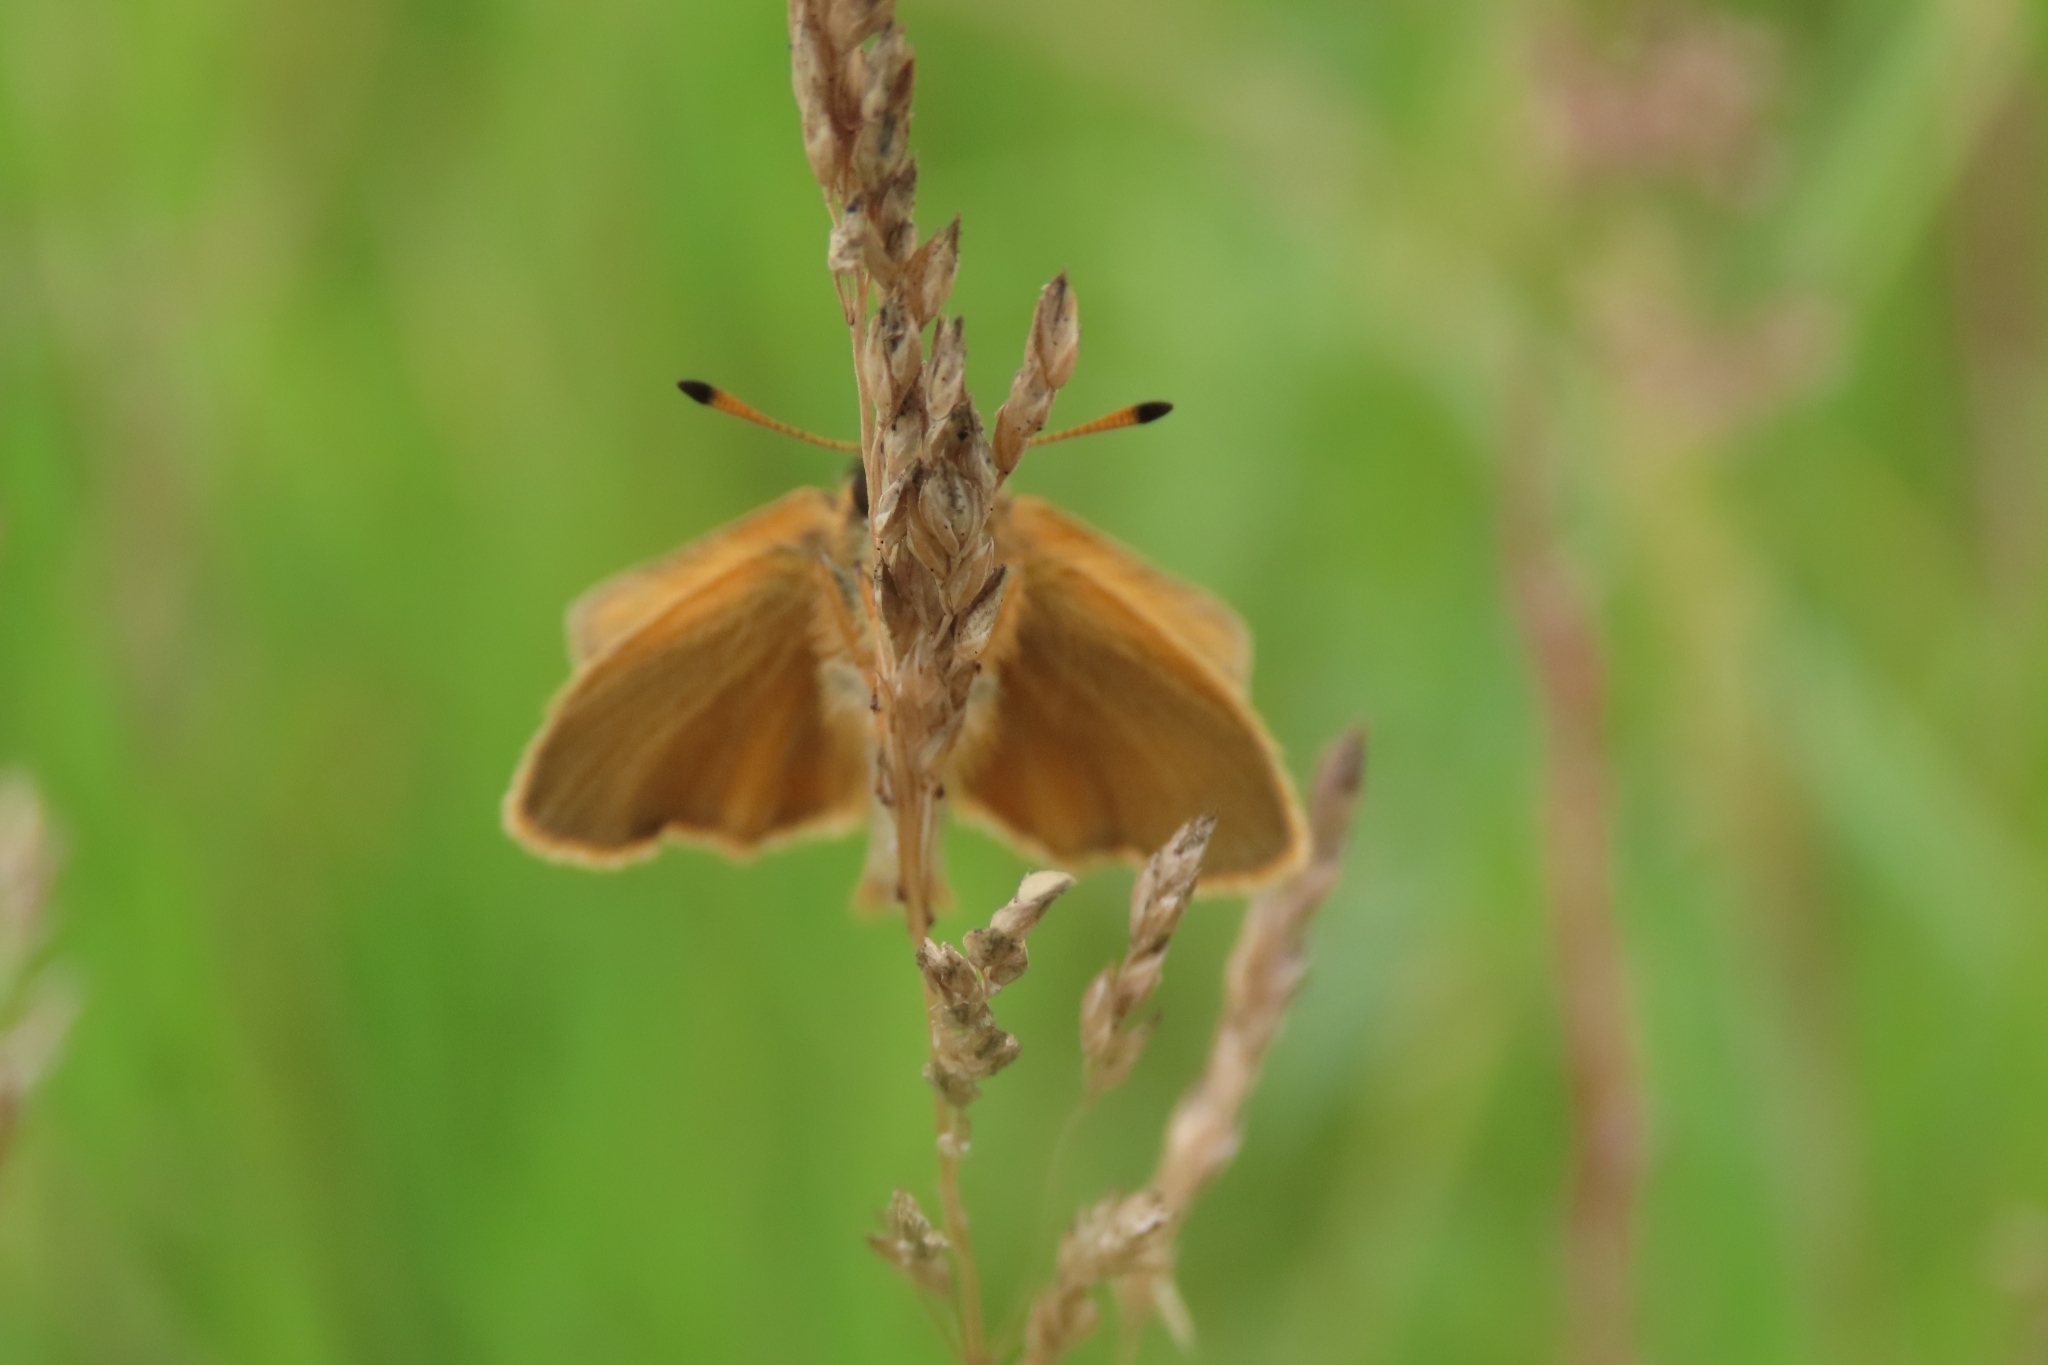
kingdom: Animalia
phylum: Arthropoda
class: Insecta
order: Lepidoptera
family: Hesperiidae
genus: Thymelicus
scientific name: Thymelicus lineola
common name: Essex skipper
